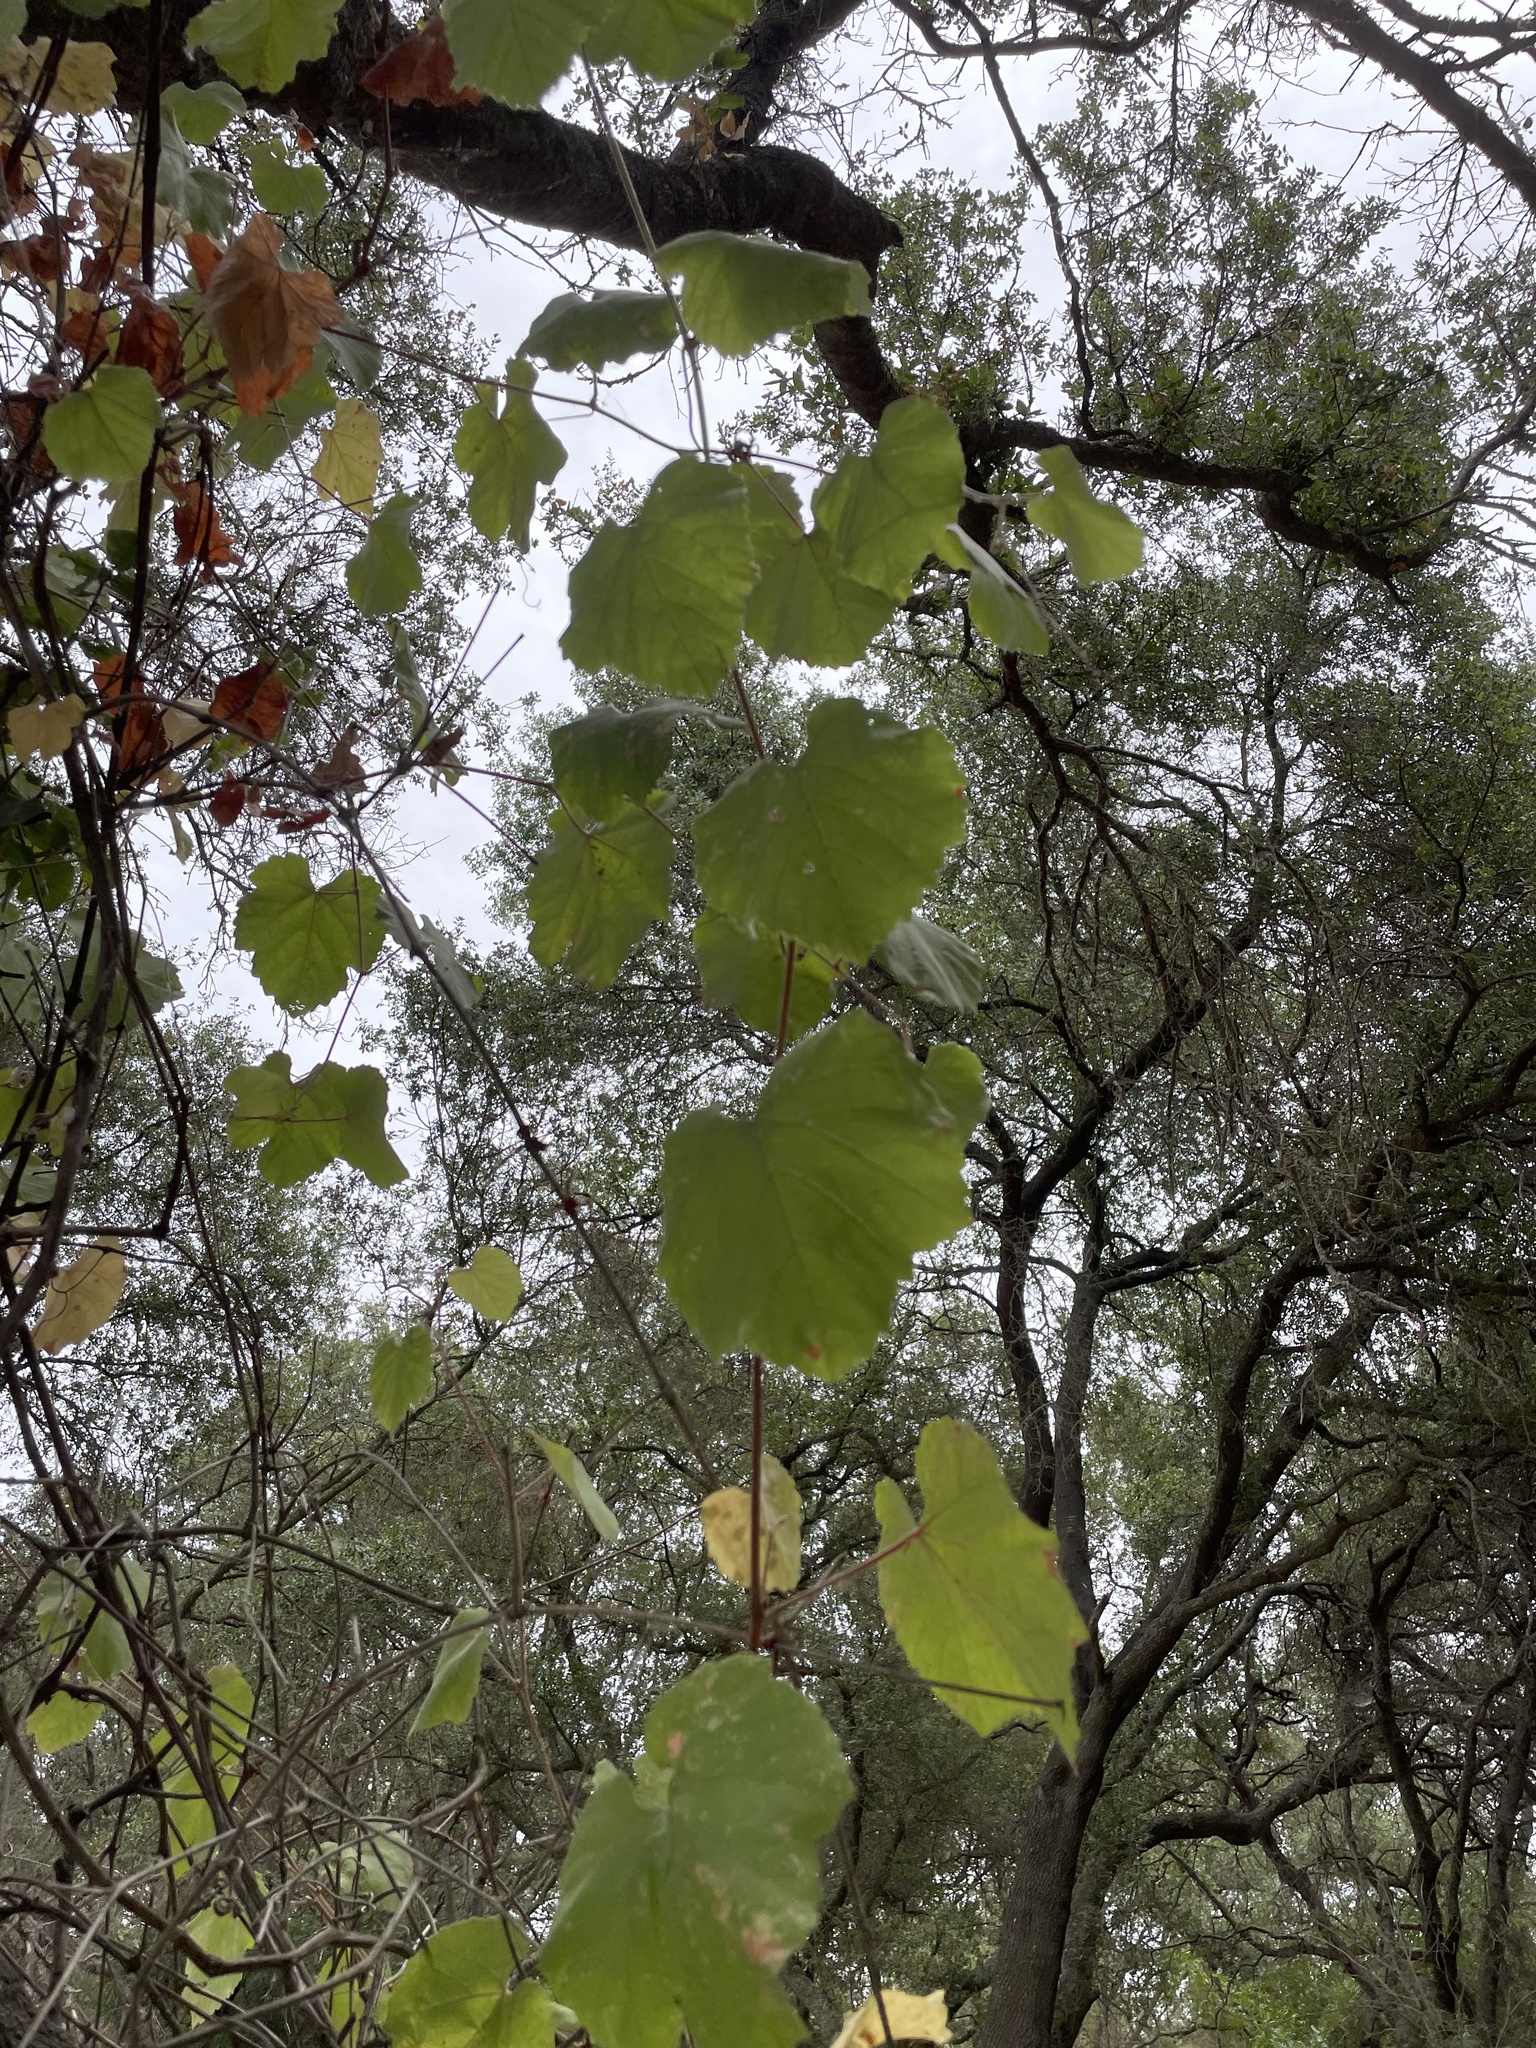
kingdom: Plantae
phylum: Tracheophyta
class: Magnoliopsida
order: Vitales
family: Vitaceae
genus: Vitis
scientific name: Vitis californica
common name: California wild grape
